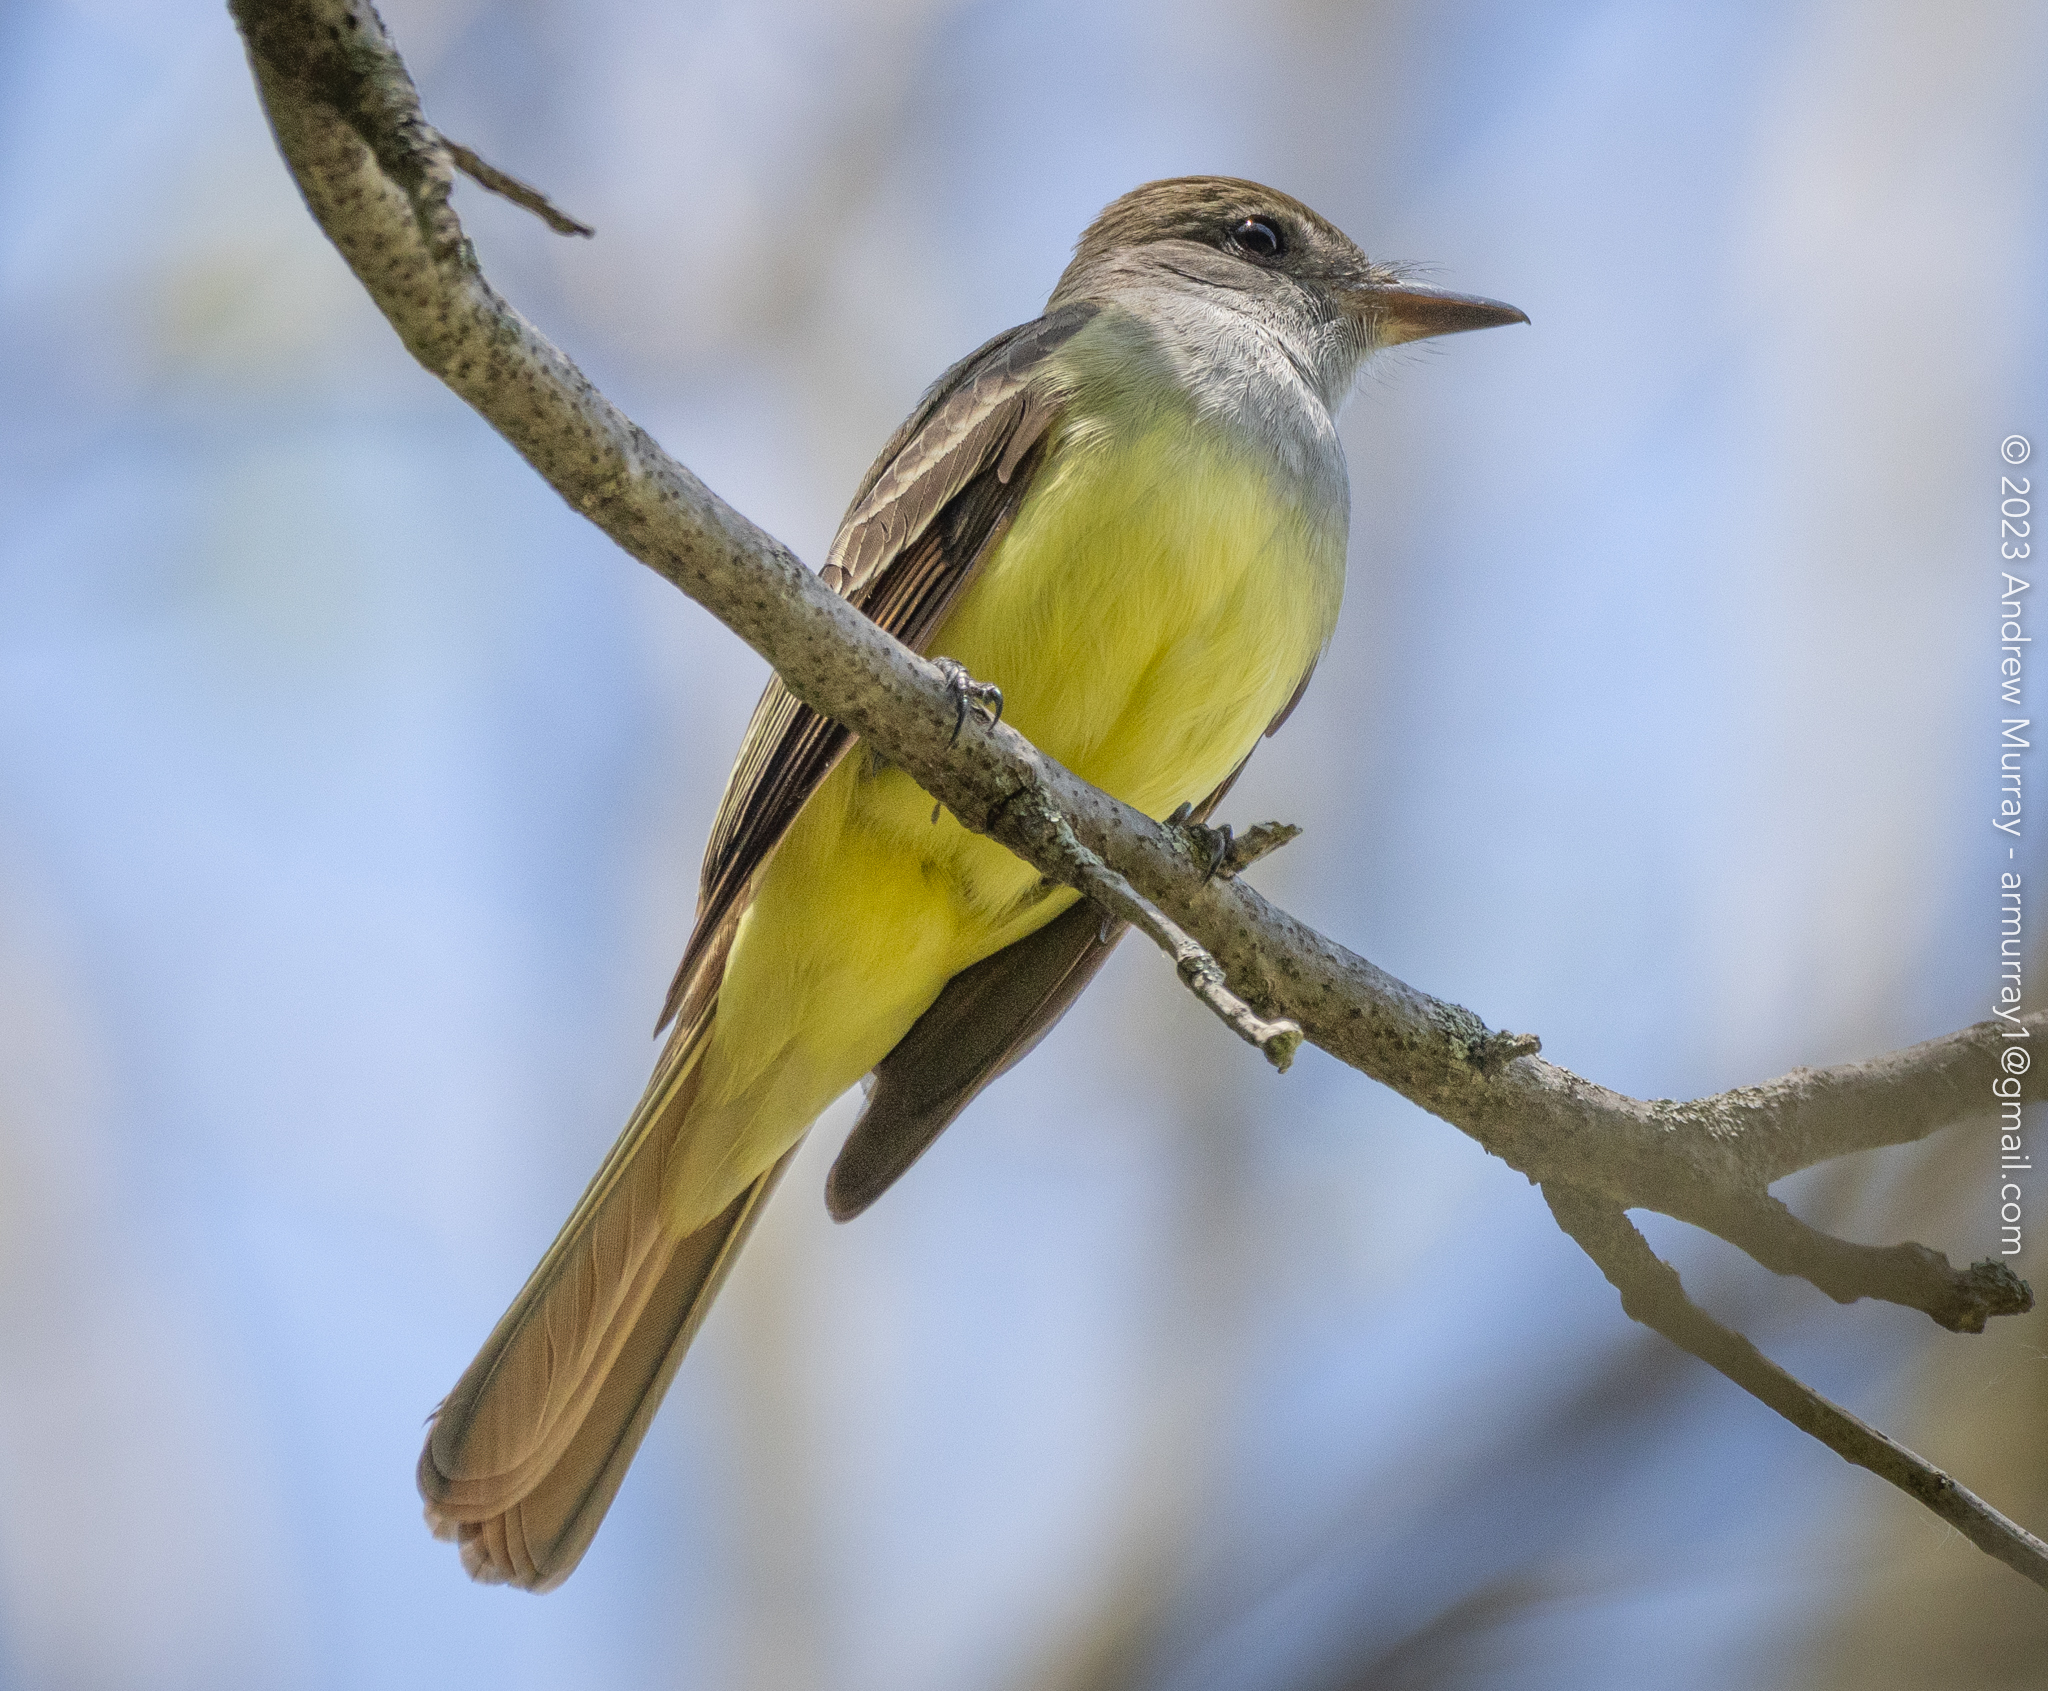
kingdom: Animalia
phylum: Chordata
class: Aves
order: Passeriformes
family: Tyrannidae
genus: Myiarchus
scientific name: Myiarchus crinitus
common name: Great crested flycatcher
